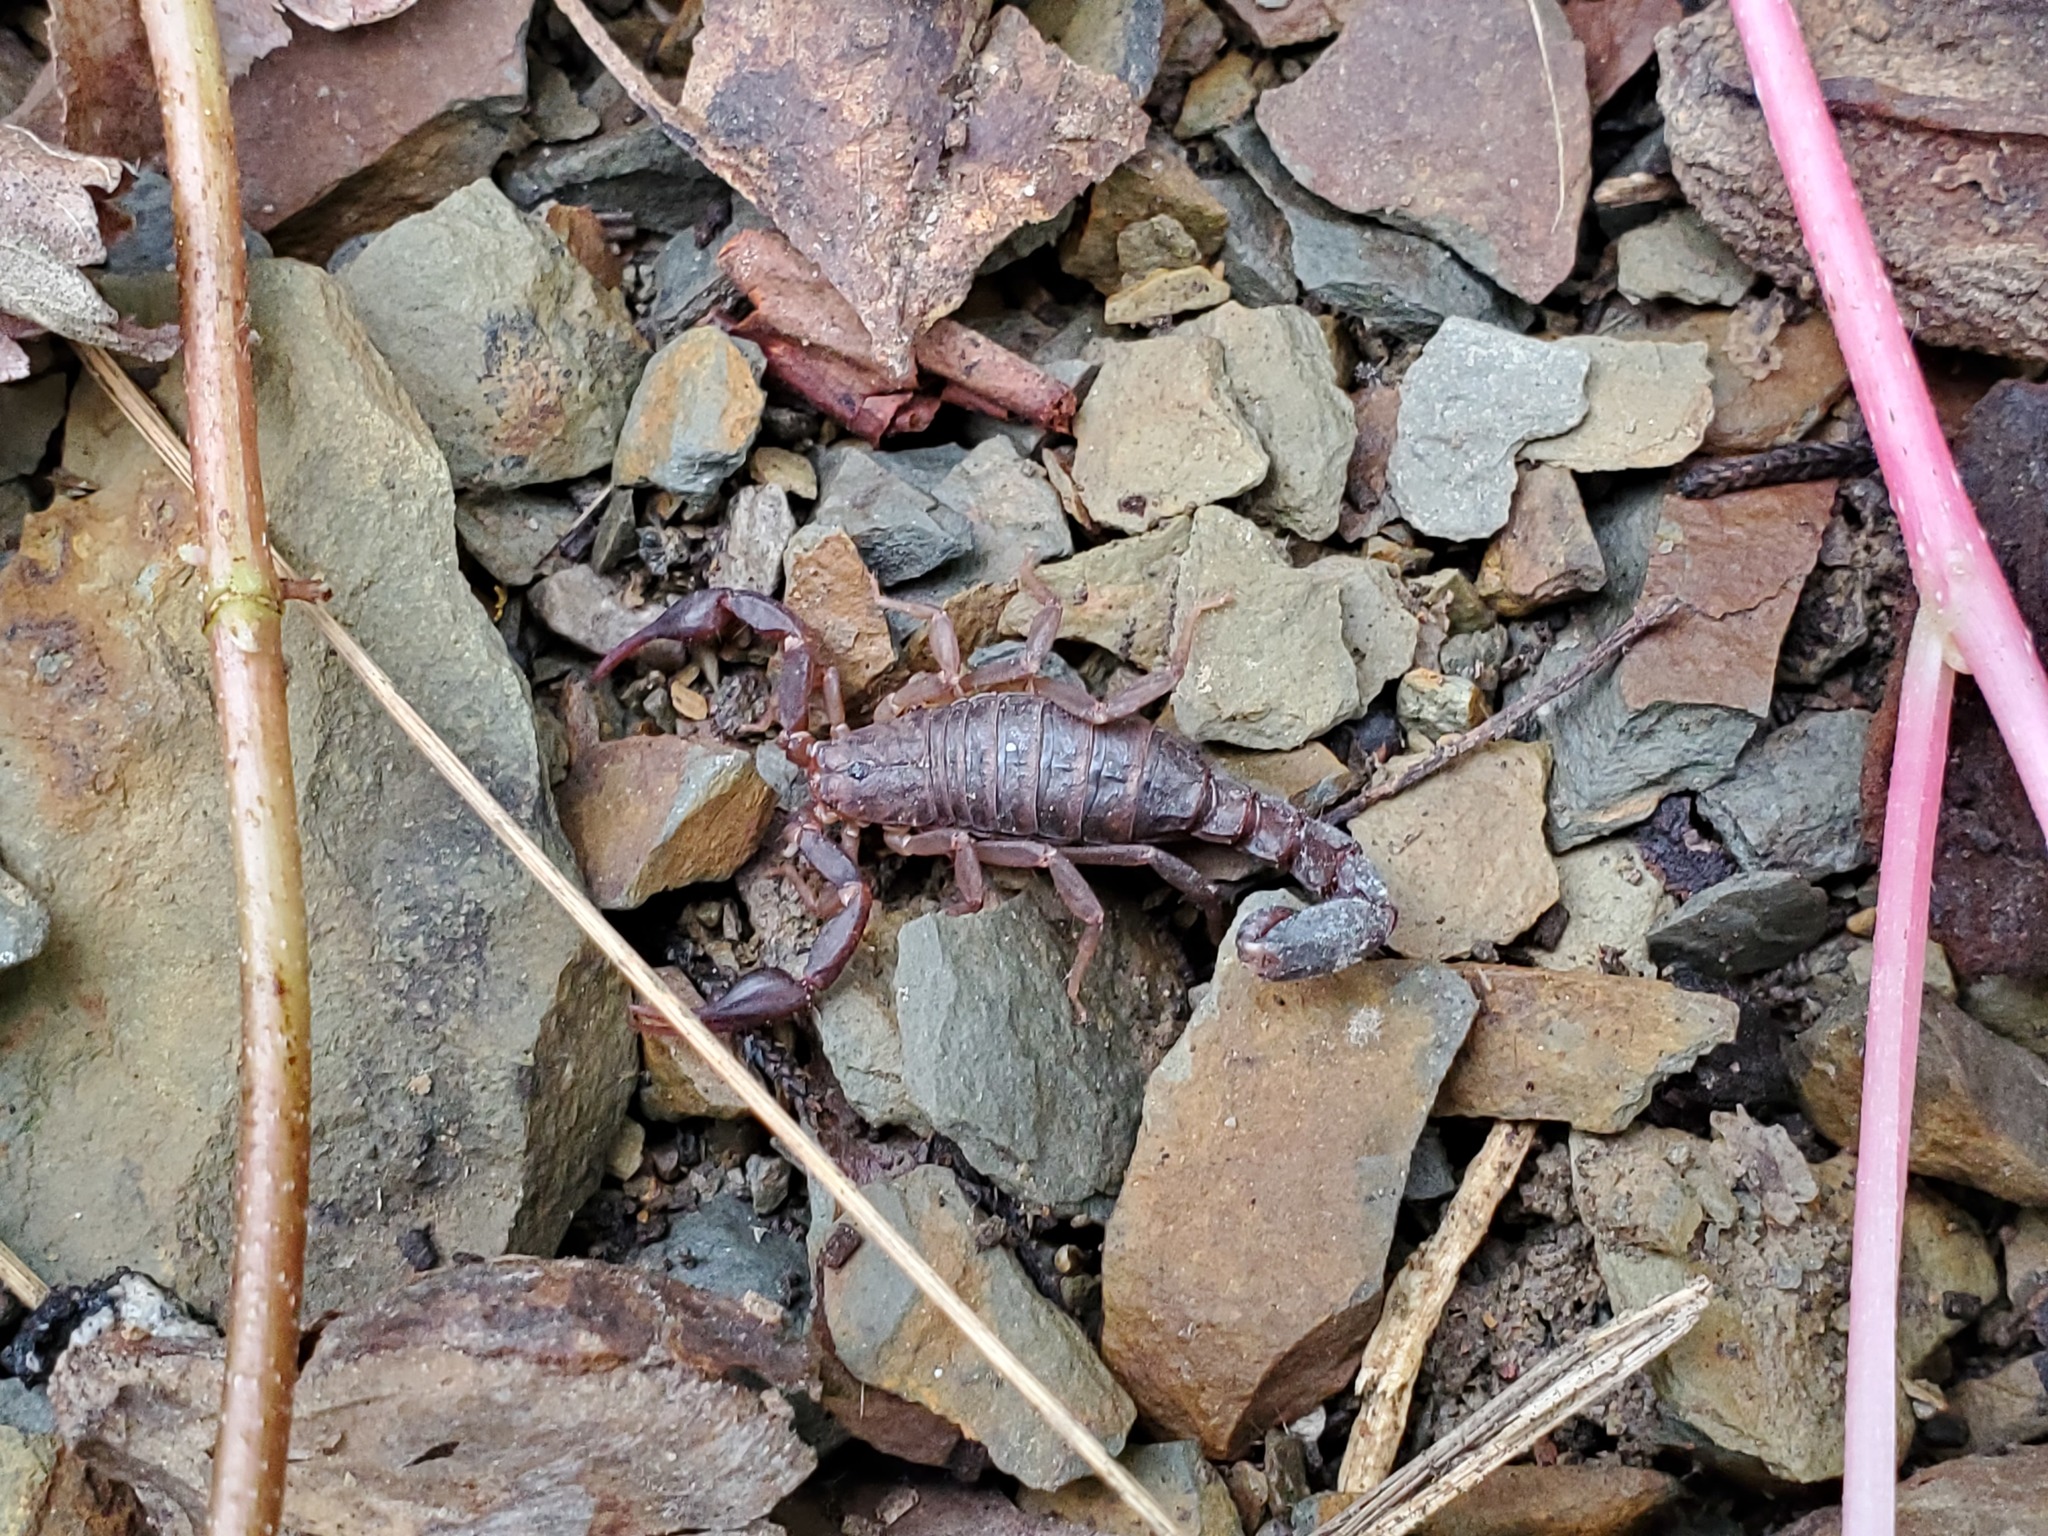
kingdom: Animalia
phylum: Arthropoda
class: Arachnida
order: Scorpiones
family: Vaejovidae
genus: Vaejovis
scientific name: Vaejovis carolinianus
